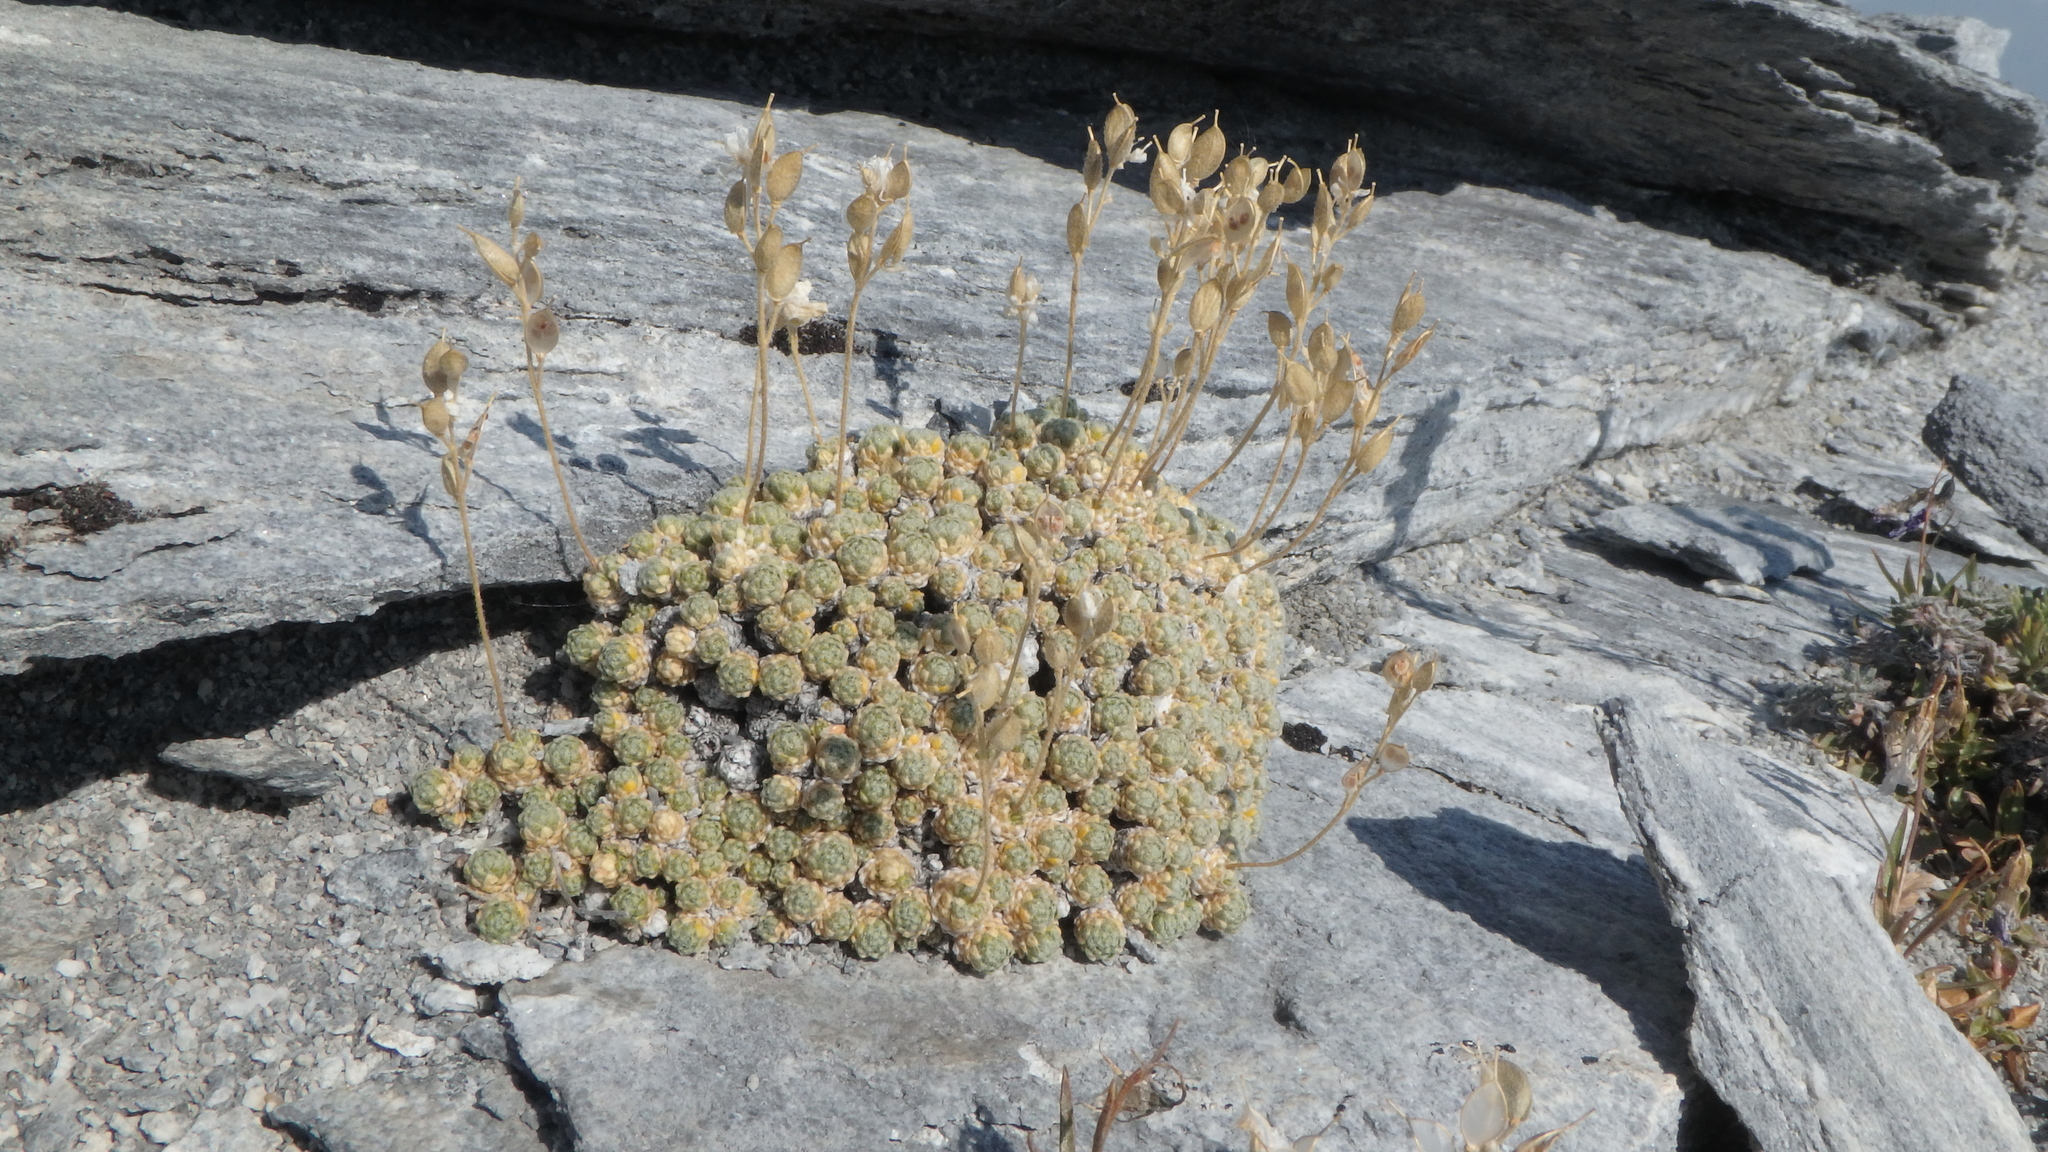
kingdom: Plantae
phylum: Tracheophyta
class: Magnoliopsida
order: Brassicales
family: Brassicaceae
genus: Draba
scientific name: Draba pterosperma
